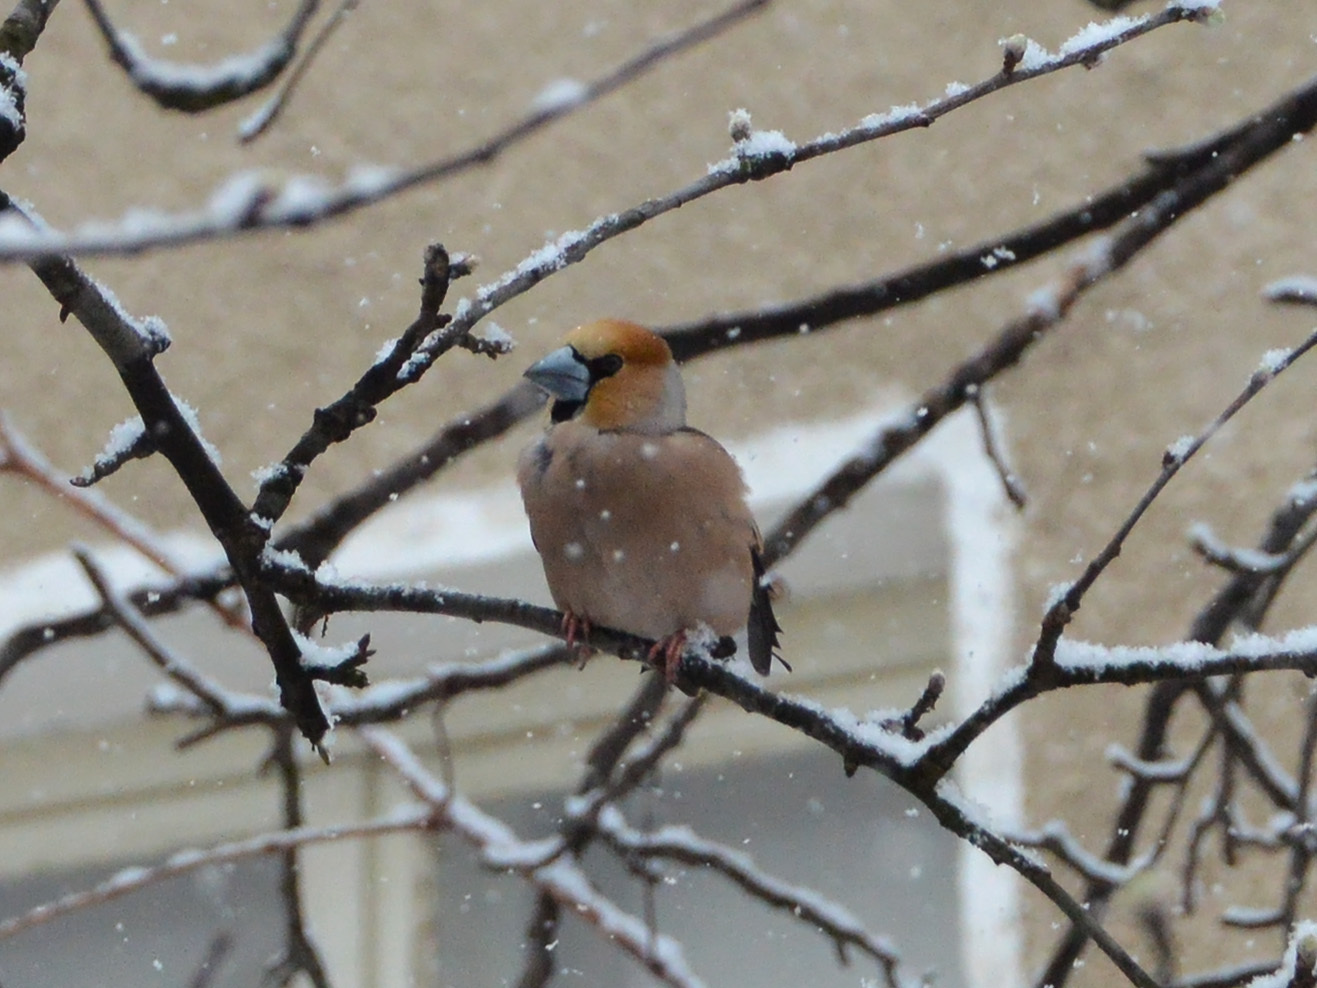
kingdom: Animalia
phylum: Chordata
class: Aves
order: Passeriformes
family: Fringillidae
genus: Coccothraustes
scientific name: Coccothraustes coccothraustes
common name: Hawfinch
